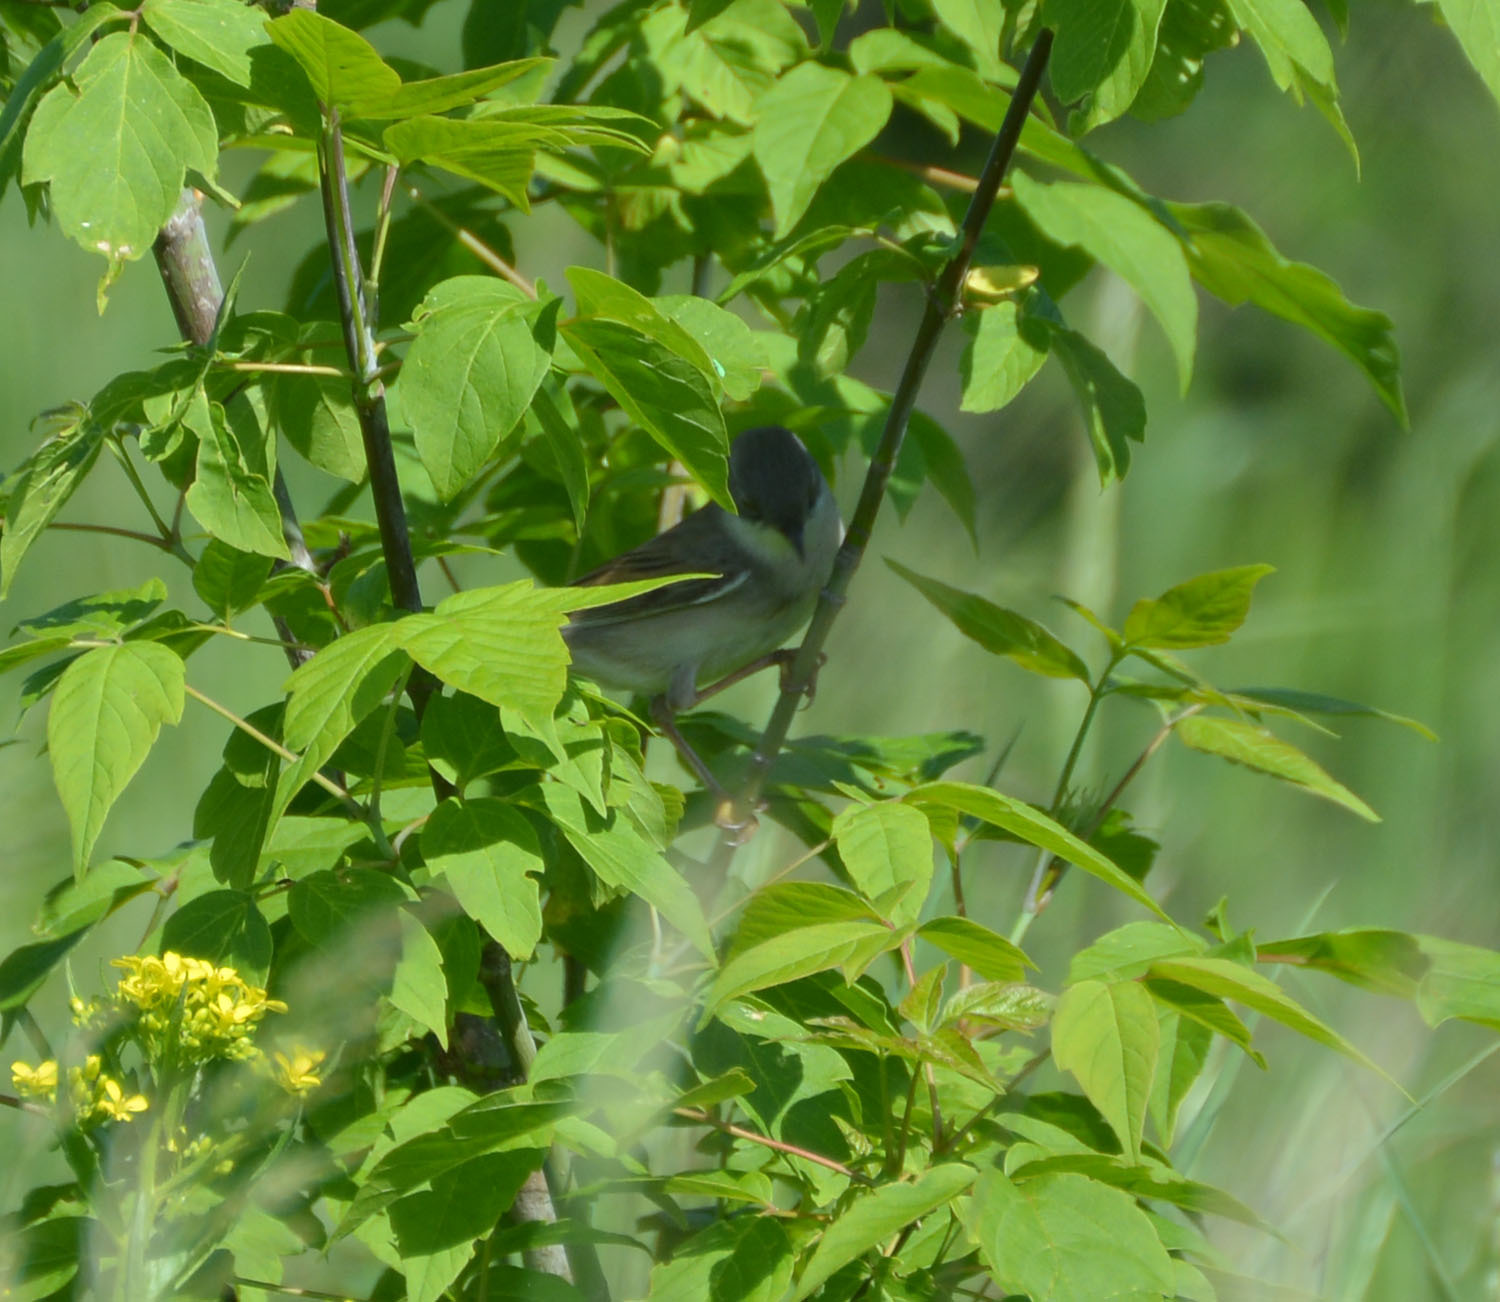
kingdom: Animalia
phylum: Chordata
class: Aves
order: Passeriformes
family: Sylviidae
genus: Sylvia
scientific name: Sylvia communis
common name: Common whitethroat
